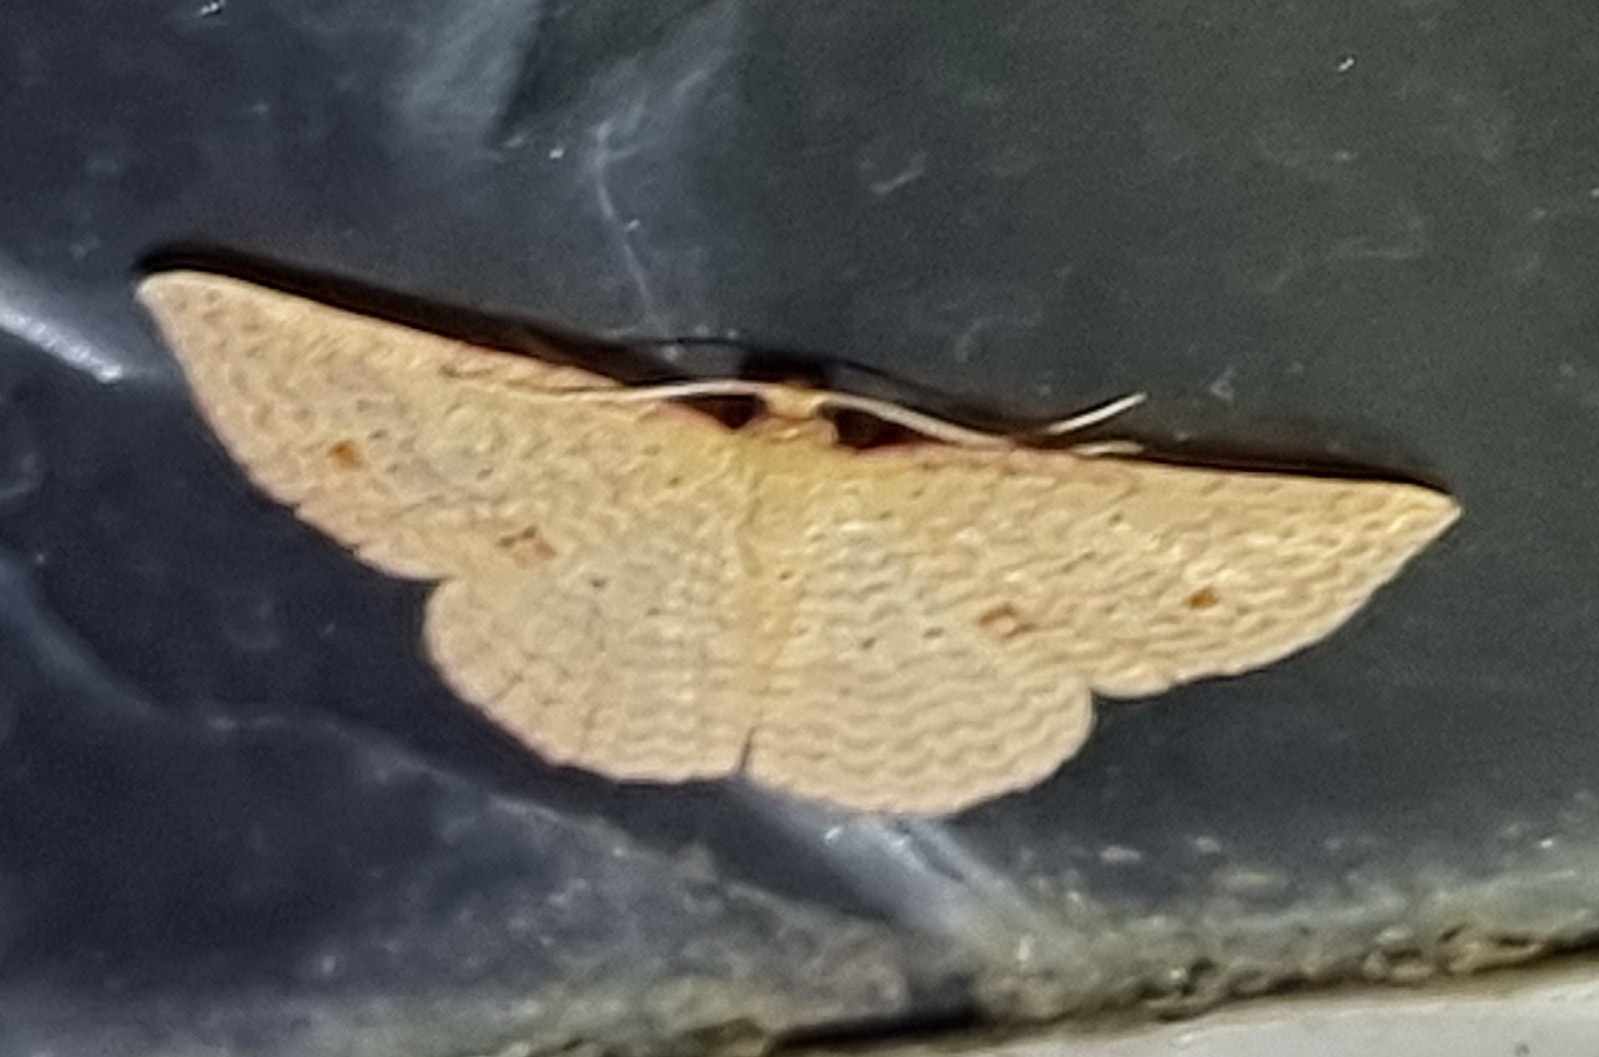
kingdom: Animalia
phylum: Arthropoda
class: Insecta
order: Lepidoptera
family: Geometridae
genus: Epicyme
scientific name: Epicyme rubropunctaria
